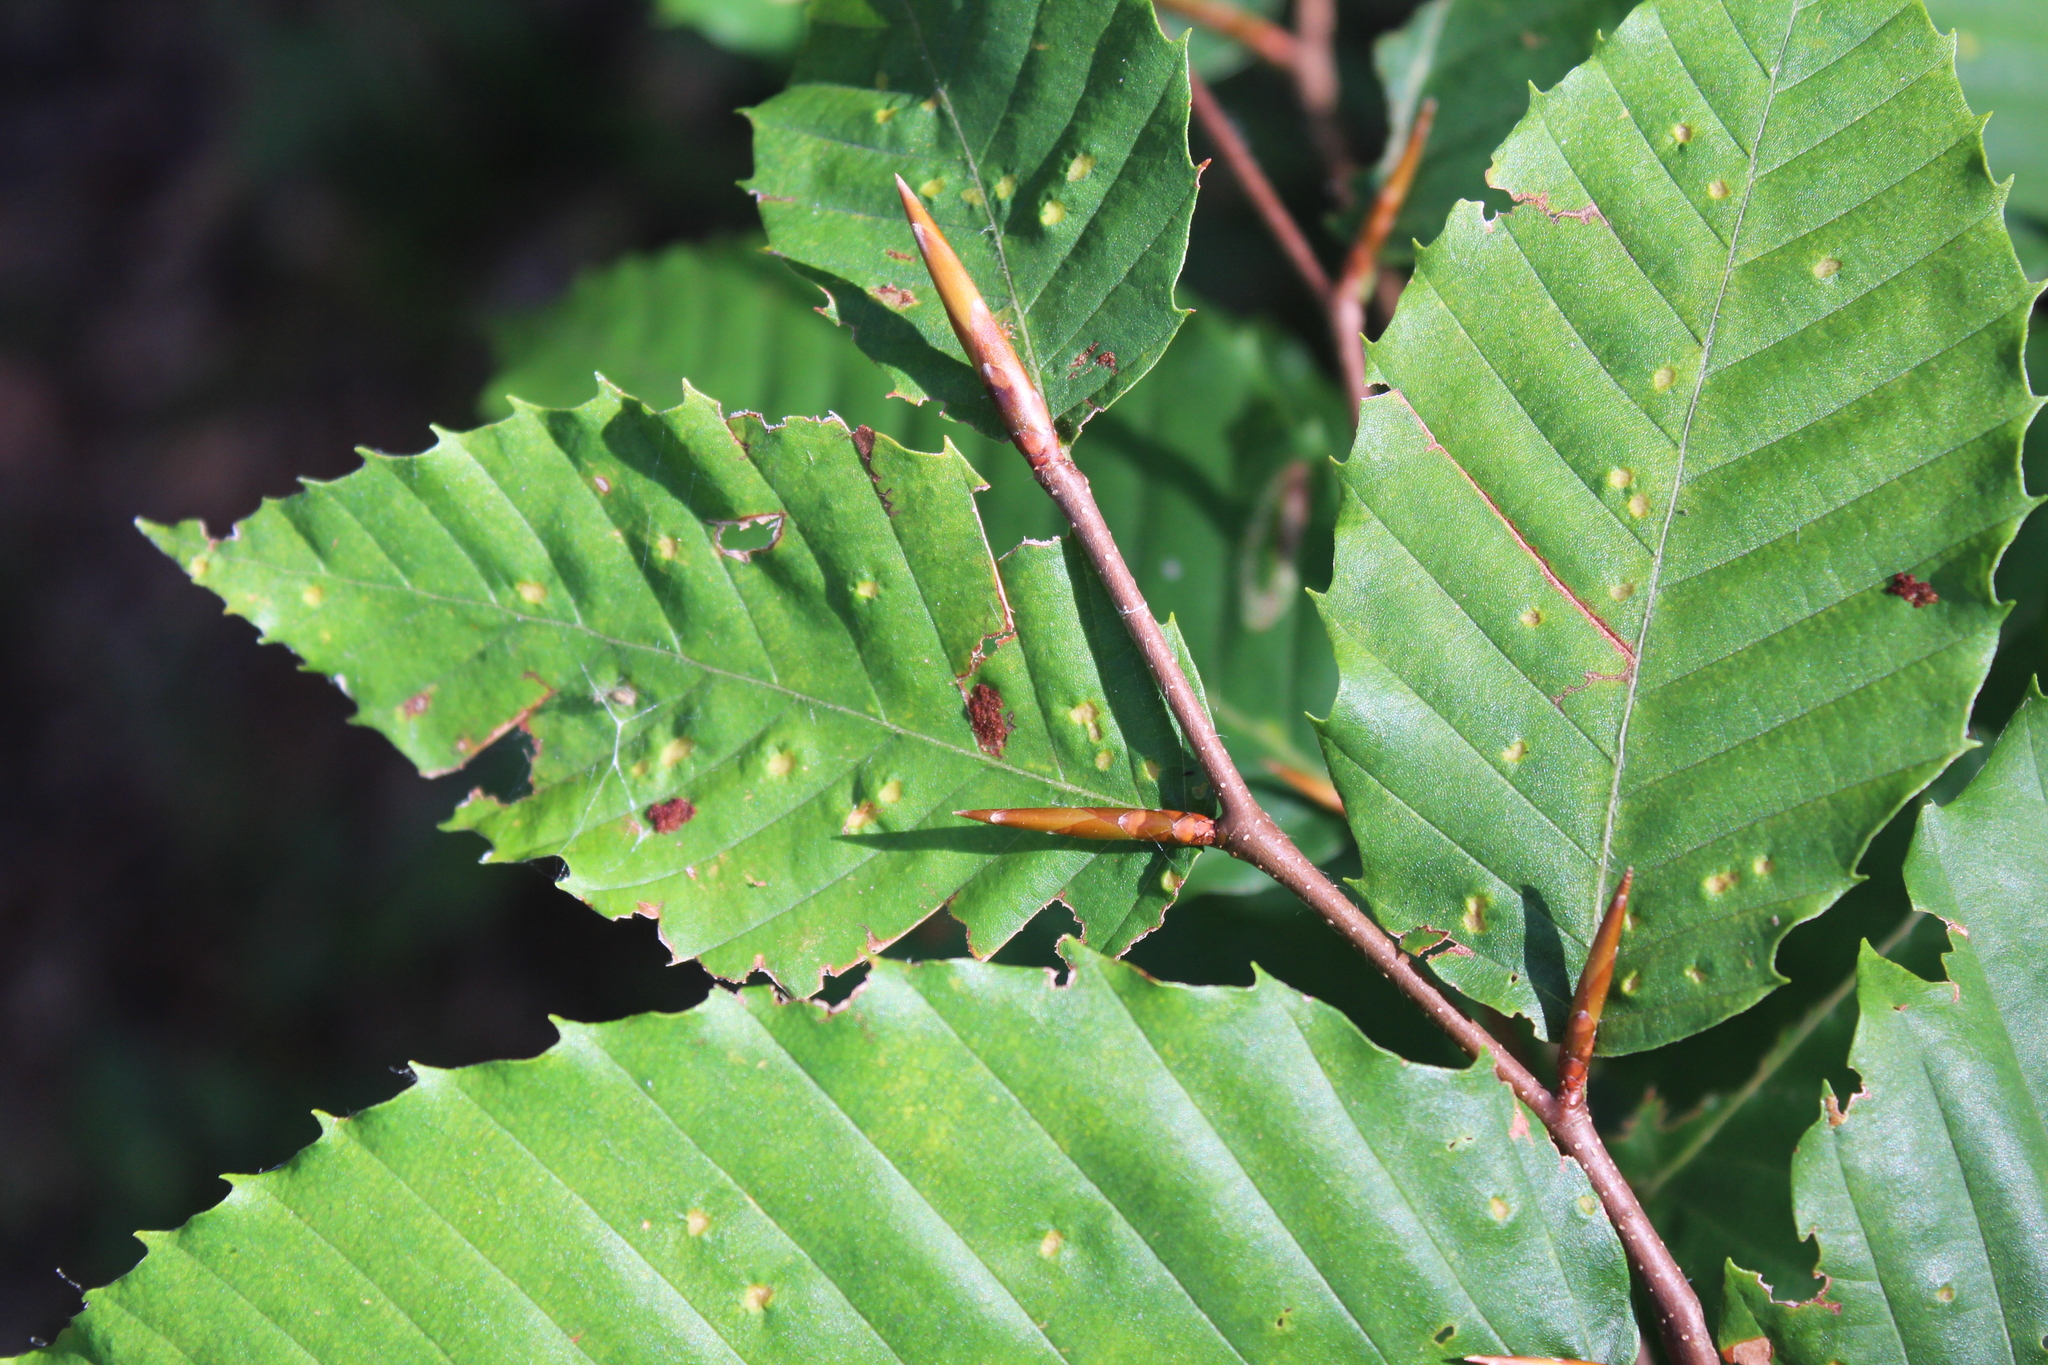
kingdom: Animalia
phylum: Arthropoda
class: Arachnida
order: Trombidiformes
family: Eriophyidae
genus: Acalitus
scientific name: Acalitus
